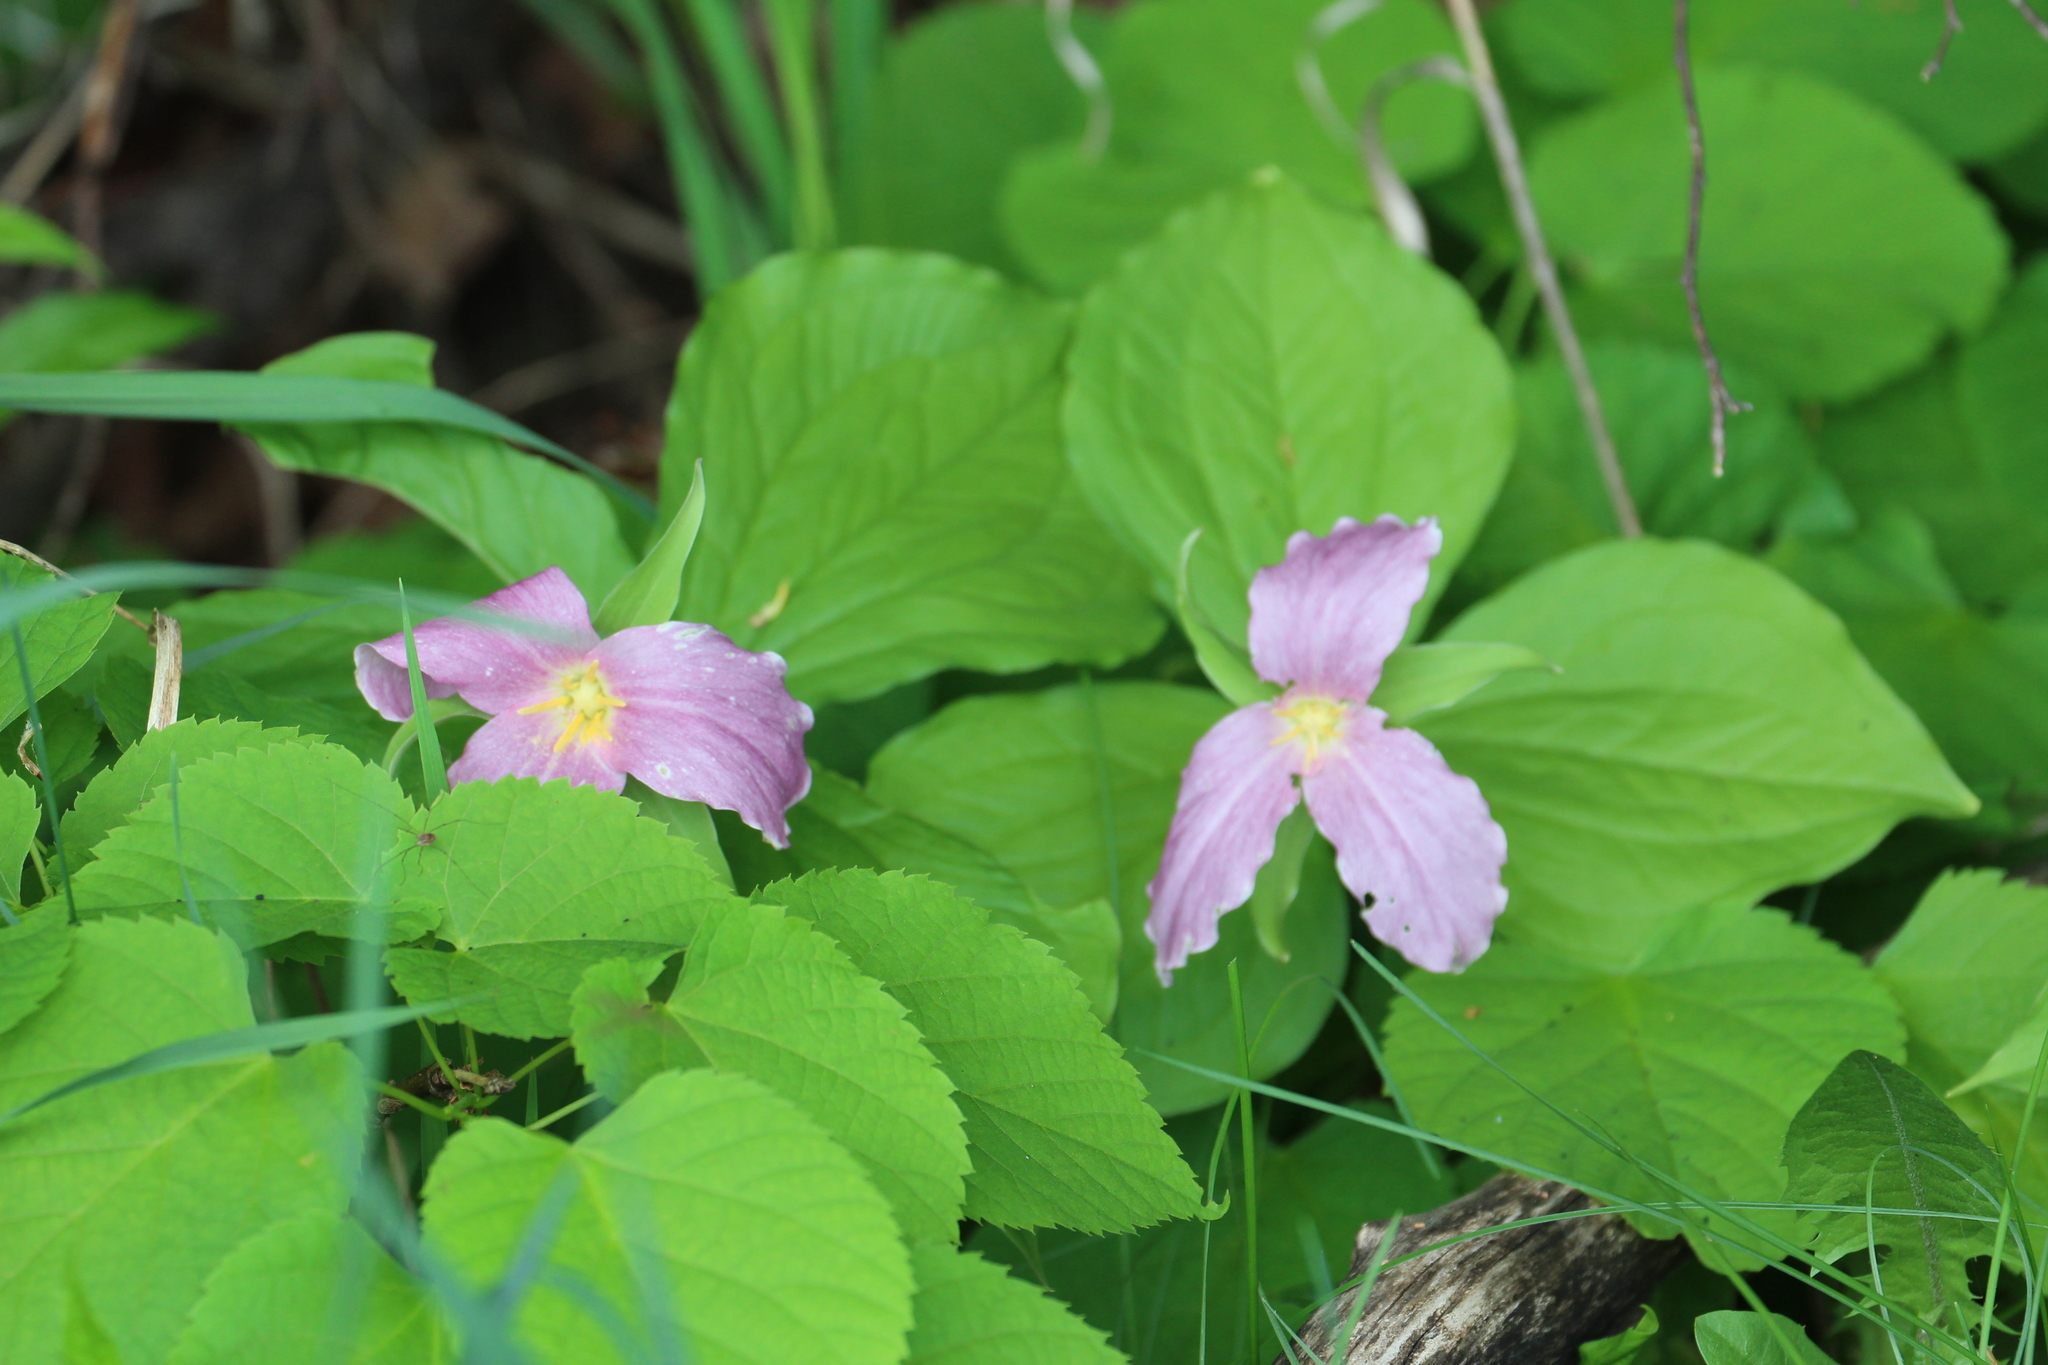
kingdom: Plantae
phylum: Tracheophyta
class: Liliopsida
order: Liliales
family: Melanthiaceae
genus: Trillium
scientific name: Trillium grandiflorum
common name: Great white trillium
